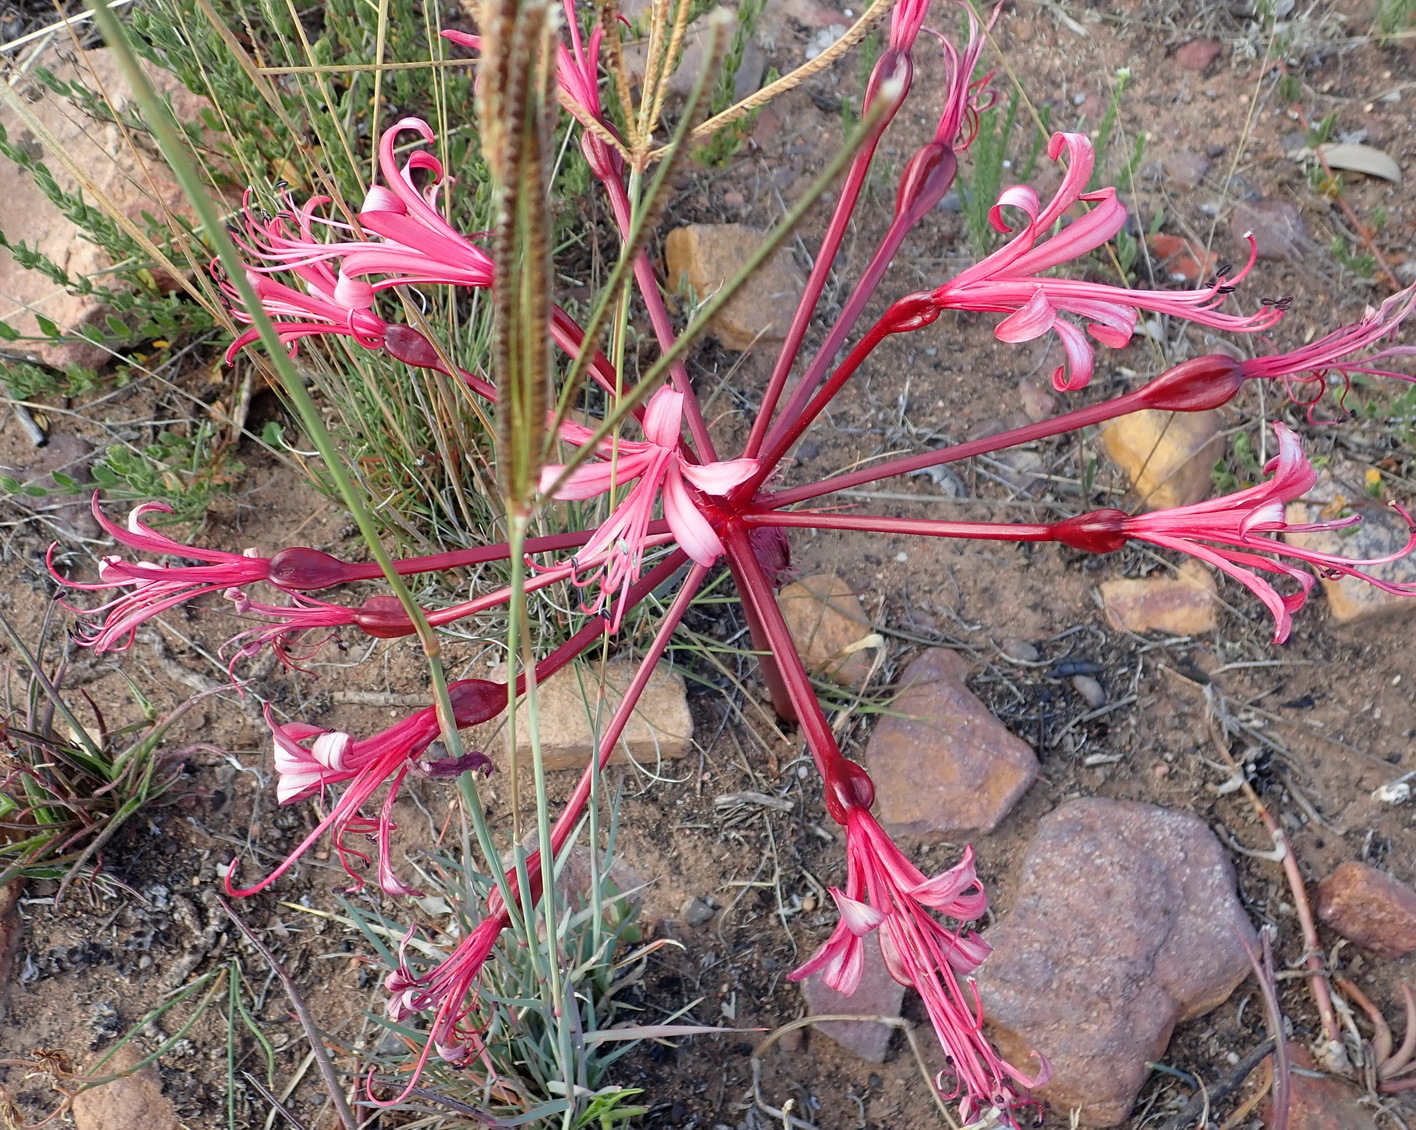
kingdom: Plantae
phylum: Tracheophyta
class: Liliopsida
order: Asparagales
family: Amaryllidaceae
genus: Brunsvigia
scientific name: Brunsvigia nervosa
